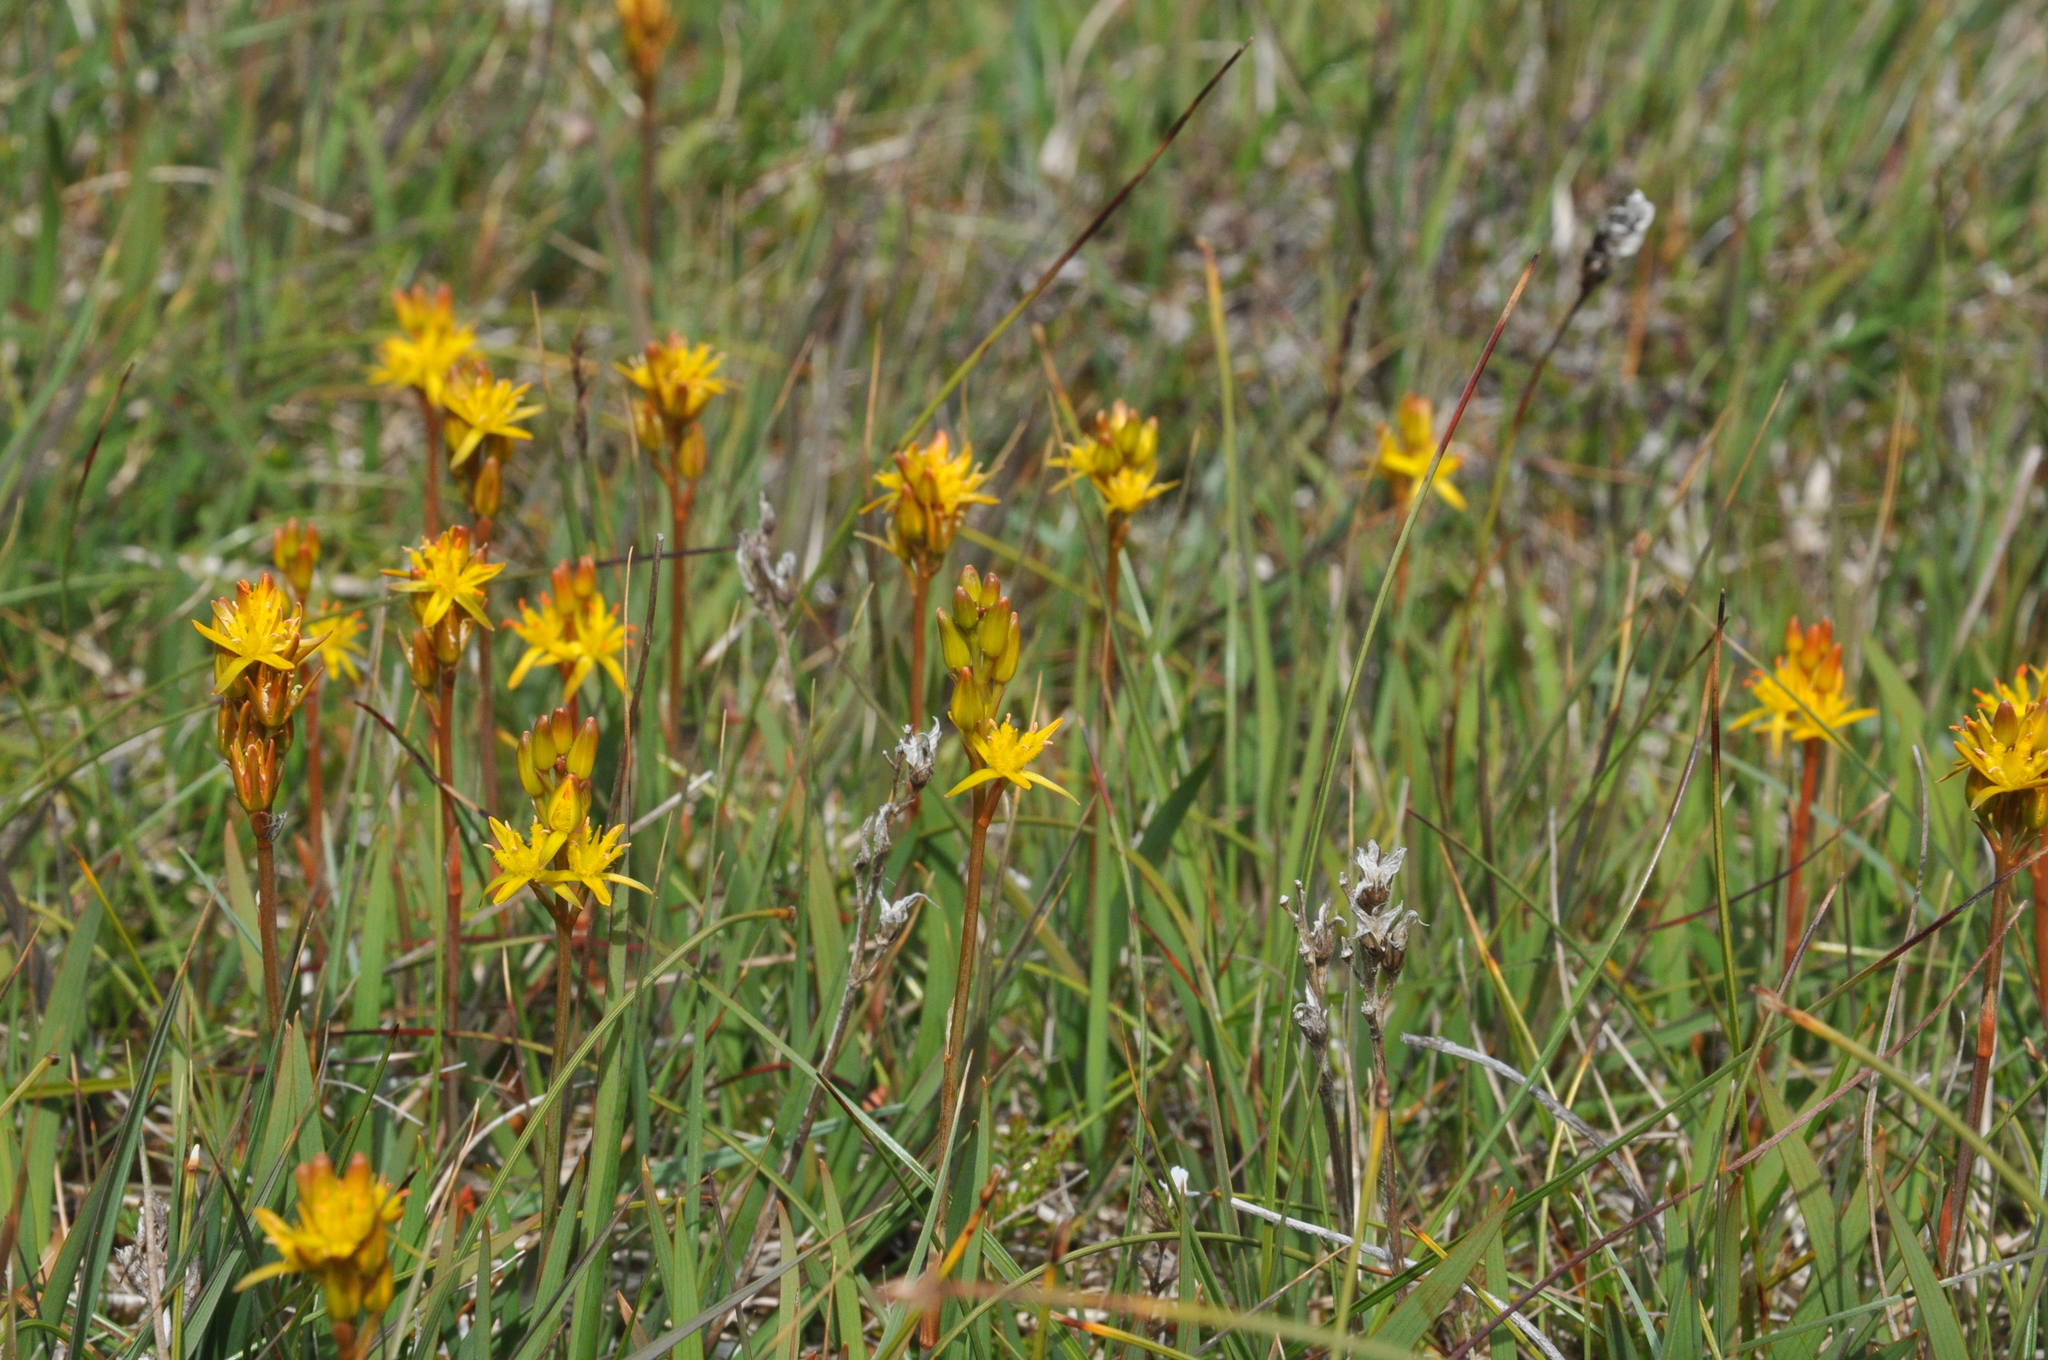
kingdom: Plantae
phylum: Tracheophyta
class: Liliopsida
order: Dioscoreales
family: Nartheciaceae
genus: Narthecium
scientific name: Narthecium ossifragum
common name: Bog asphodel
